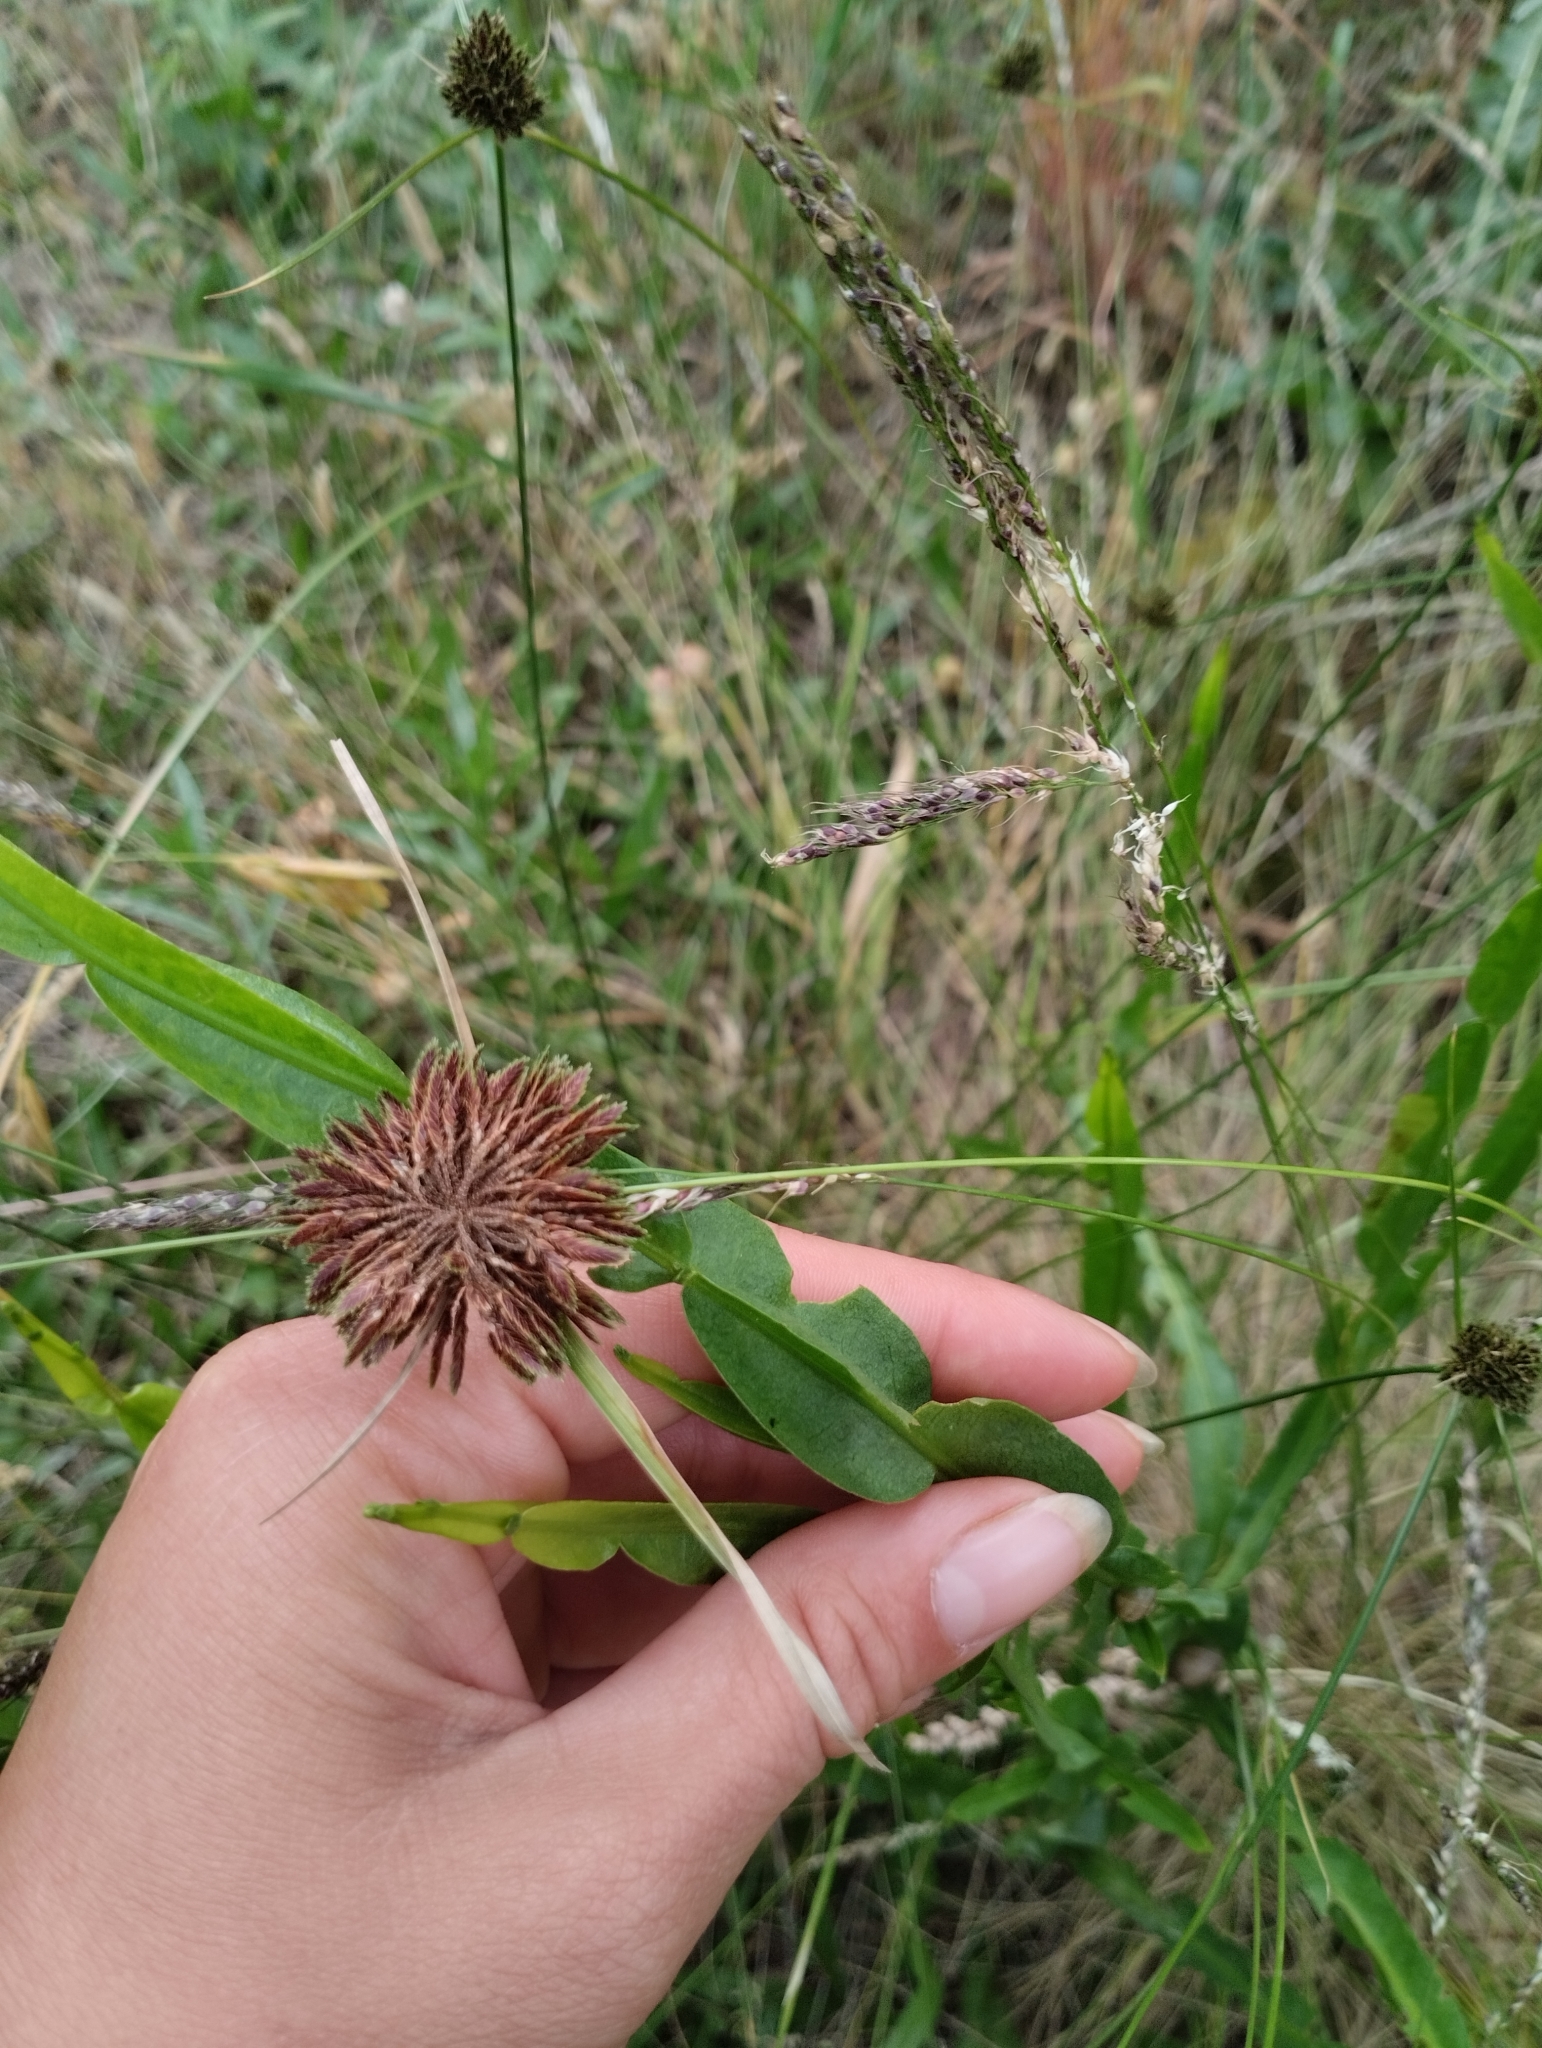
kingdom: Plantae
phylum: Tracheophyta
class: Magnoliopsida
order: Asterales
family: Asteraceae
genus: Baccharis
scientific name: Baccharis trimera
